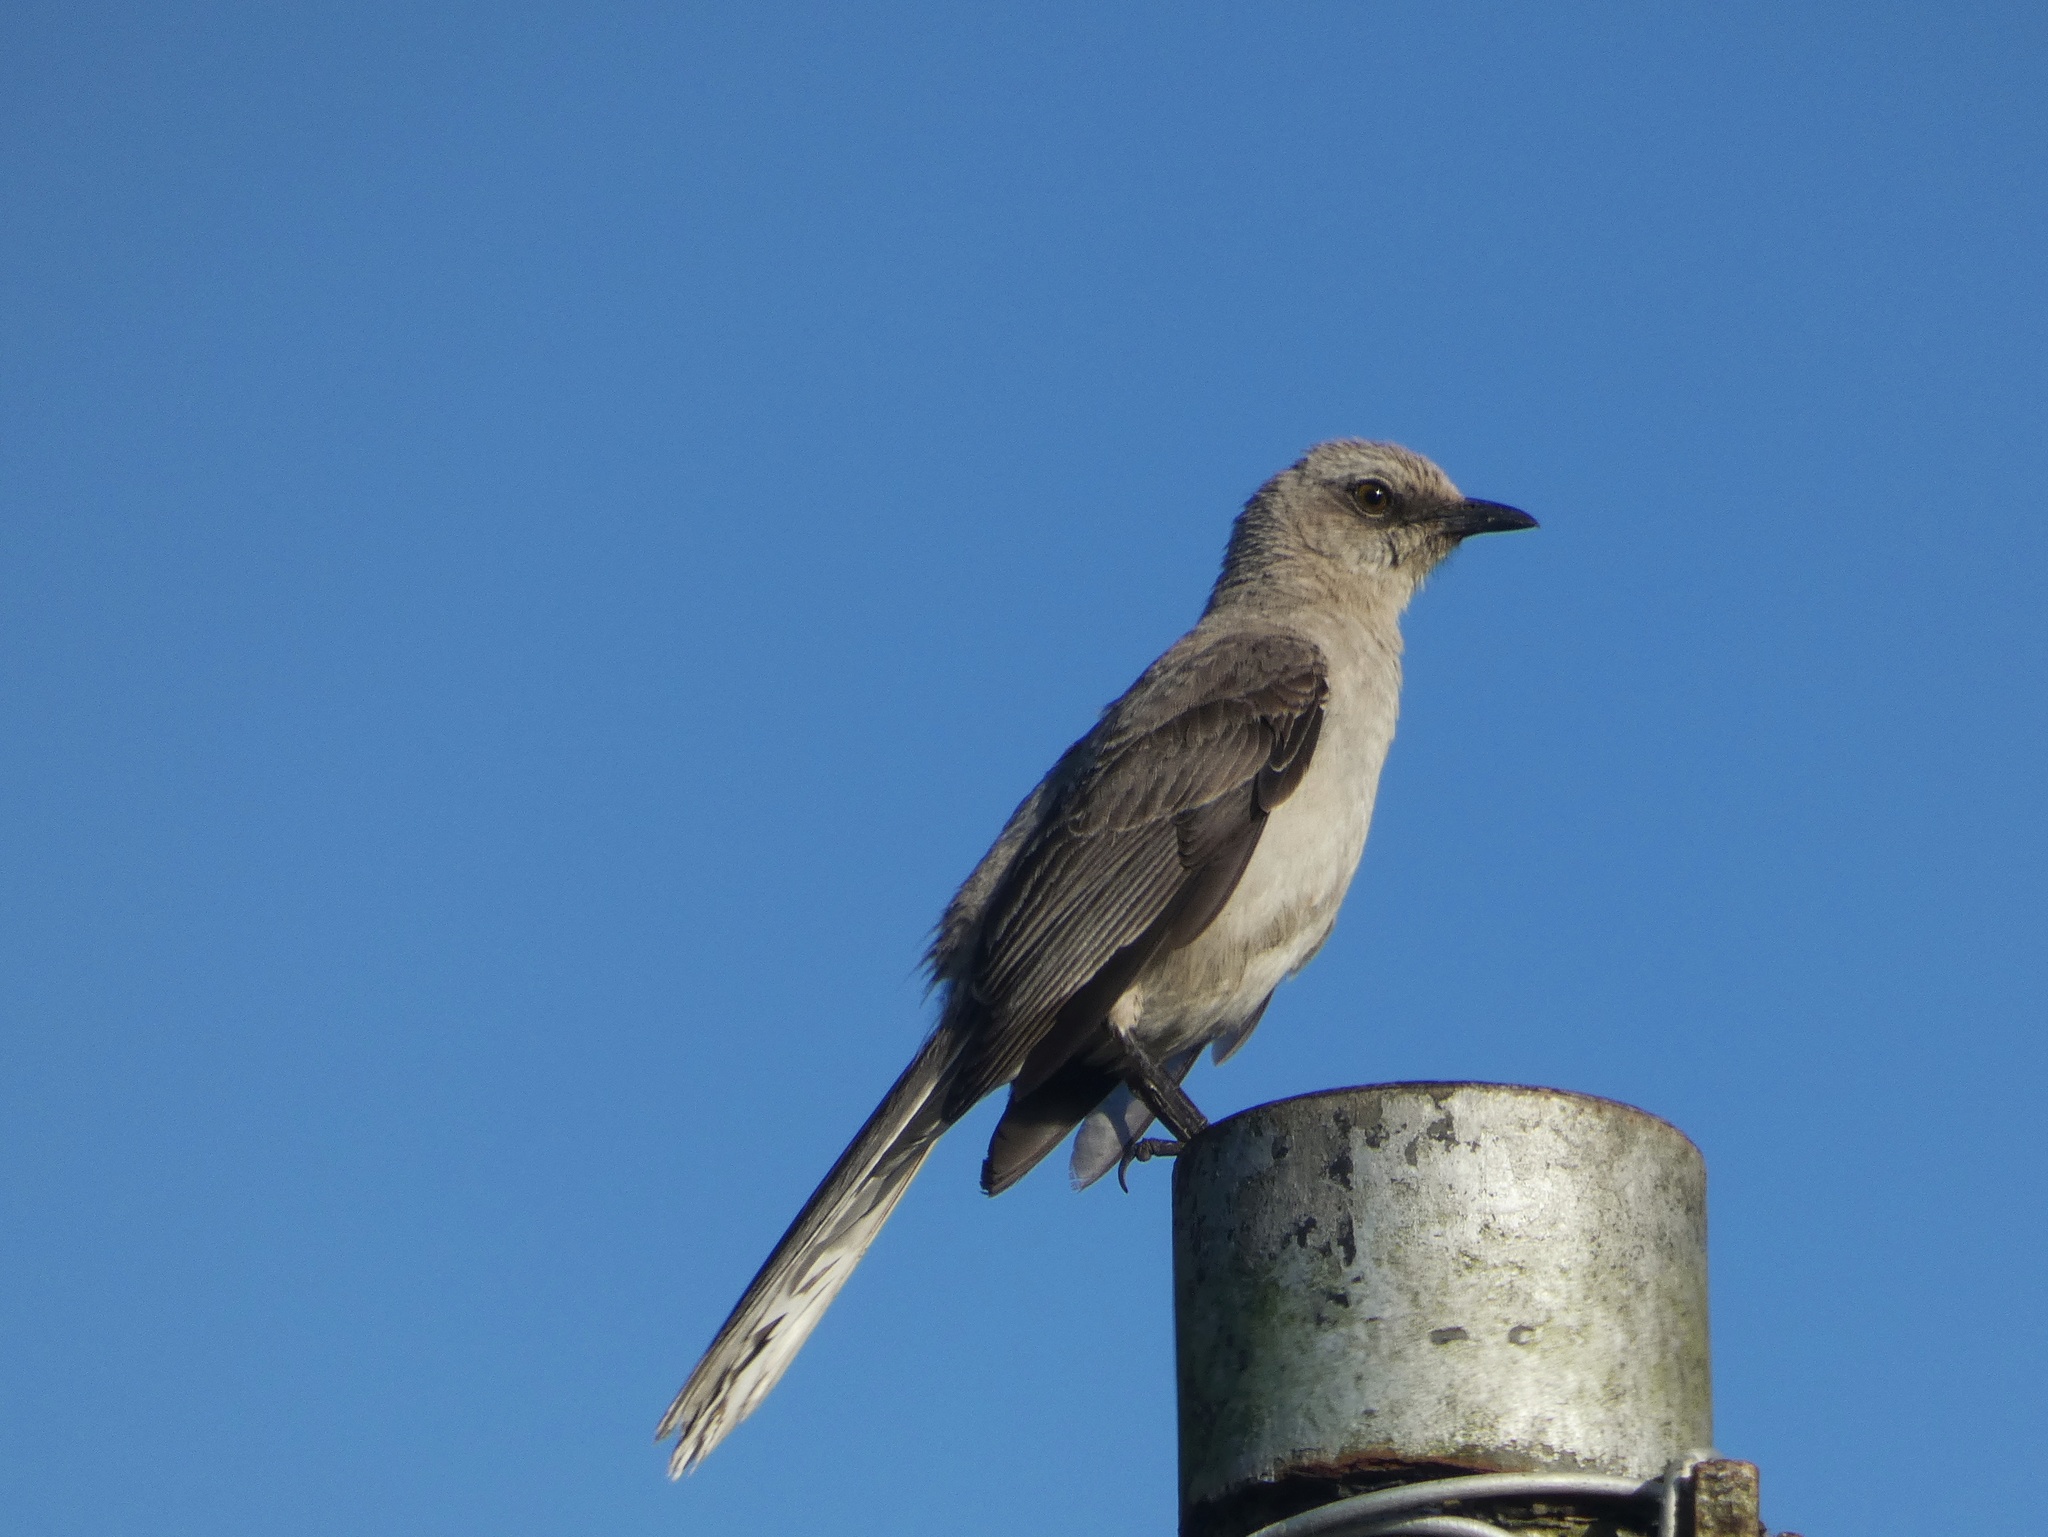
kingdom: Animalia
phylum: Chordata
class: Aves
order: Passeriformes
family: Mimidae
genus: Mimus
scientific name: Mimus gilvus
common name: Tropical mockingbird
